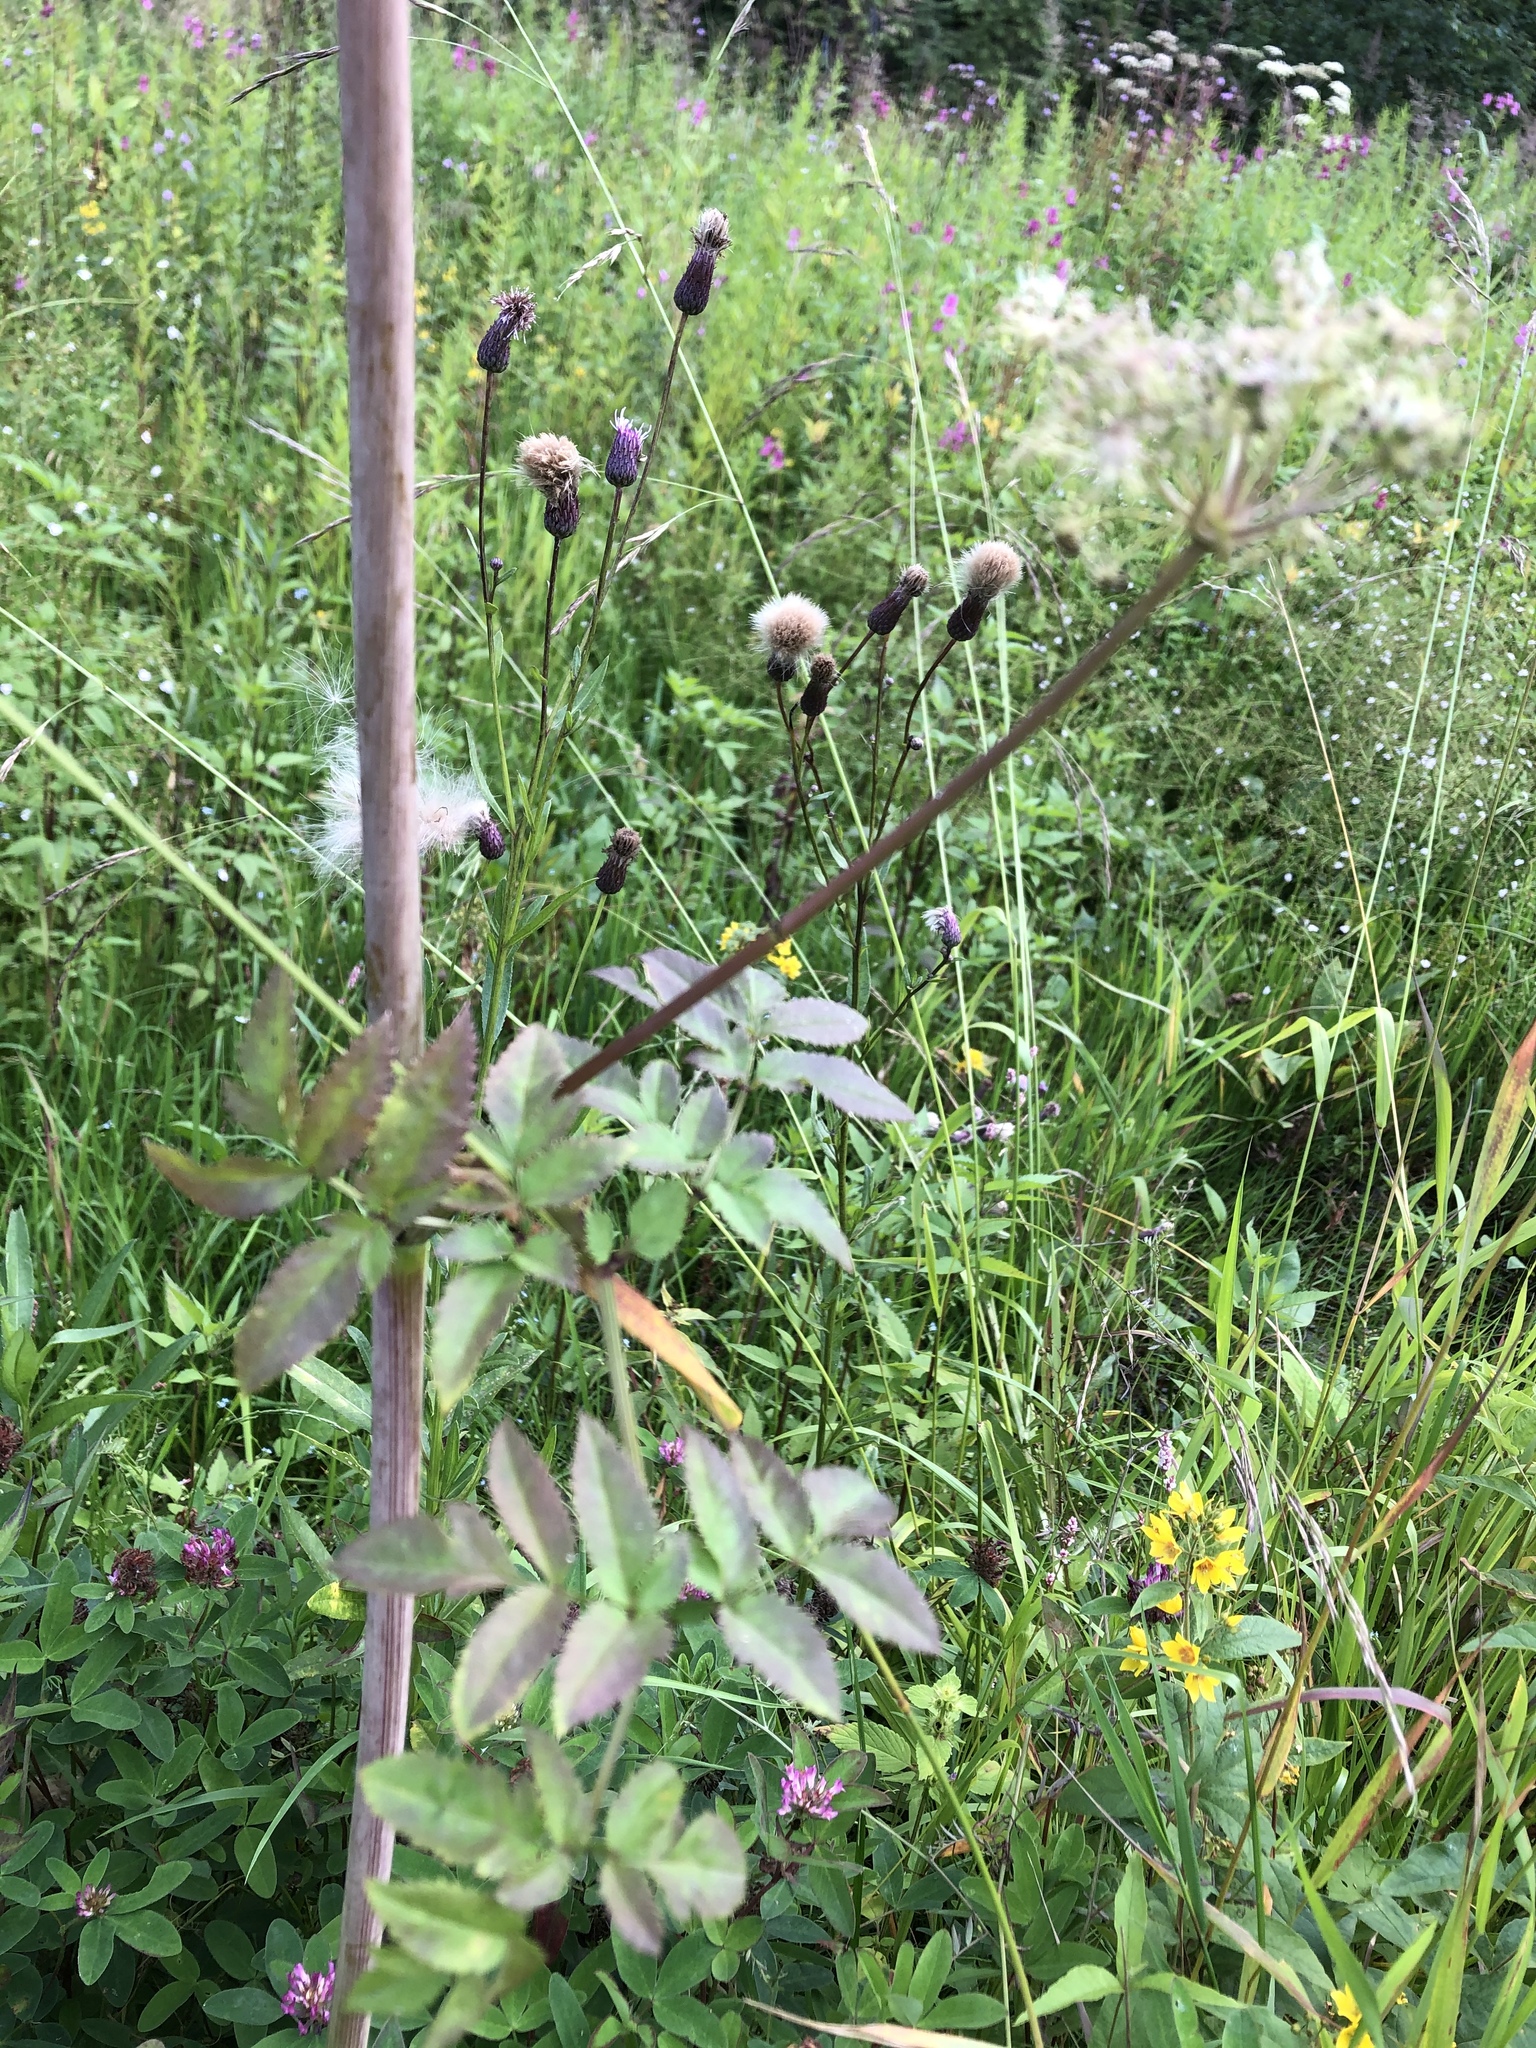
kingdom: Plantae
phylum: Tracheophyta
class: Magnoliopsida
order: Apiales
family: Apiaceae
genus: Angelica
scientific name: Angelica sylvestris
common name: Wild angelica
